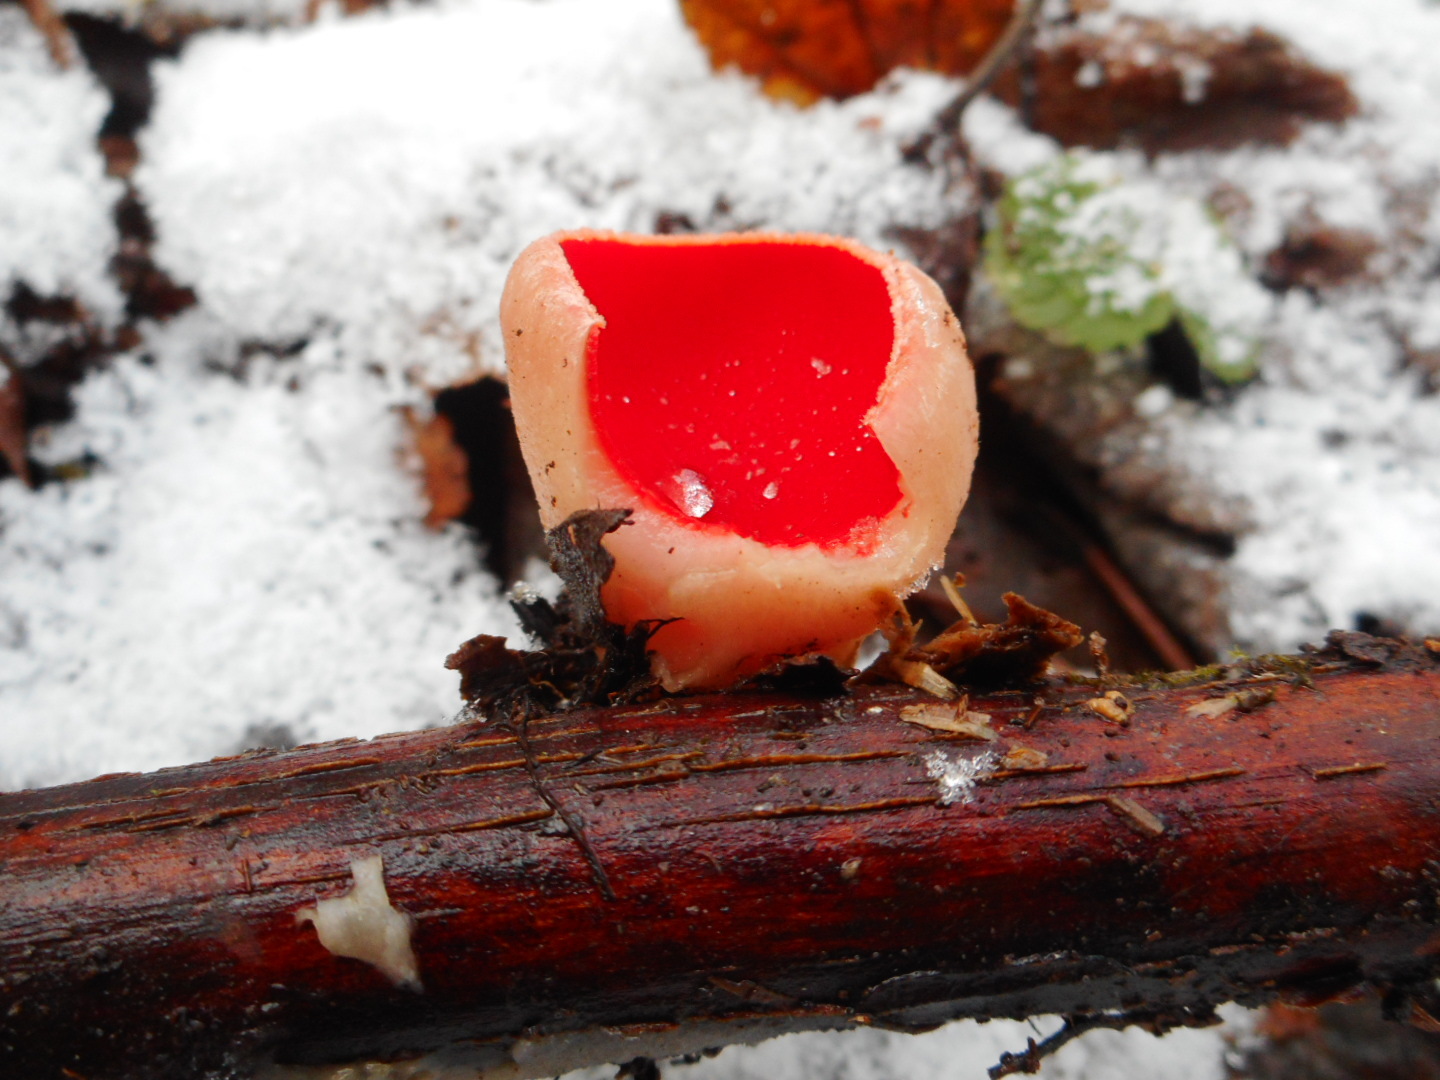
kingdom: Fungi
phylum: Ascomycota
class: Pezizomycetes
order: Pezizales
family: Sarcoscyphaceae
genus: Sarcoscypha
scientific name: Sarcoscypha austriaca
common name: Scarlet elfcup
